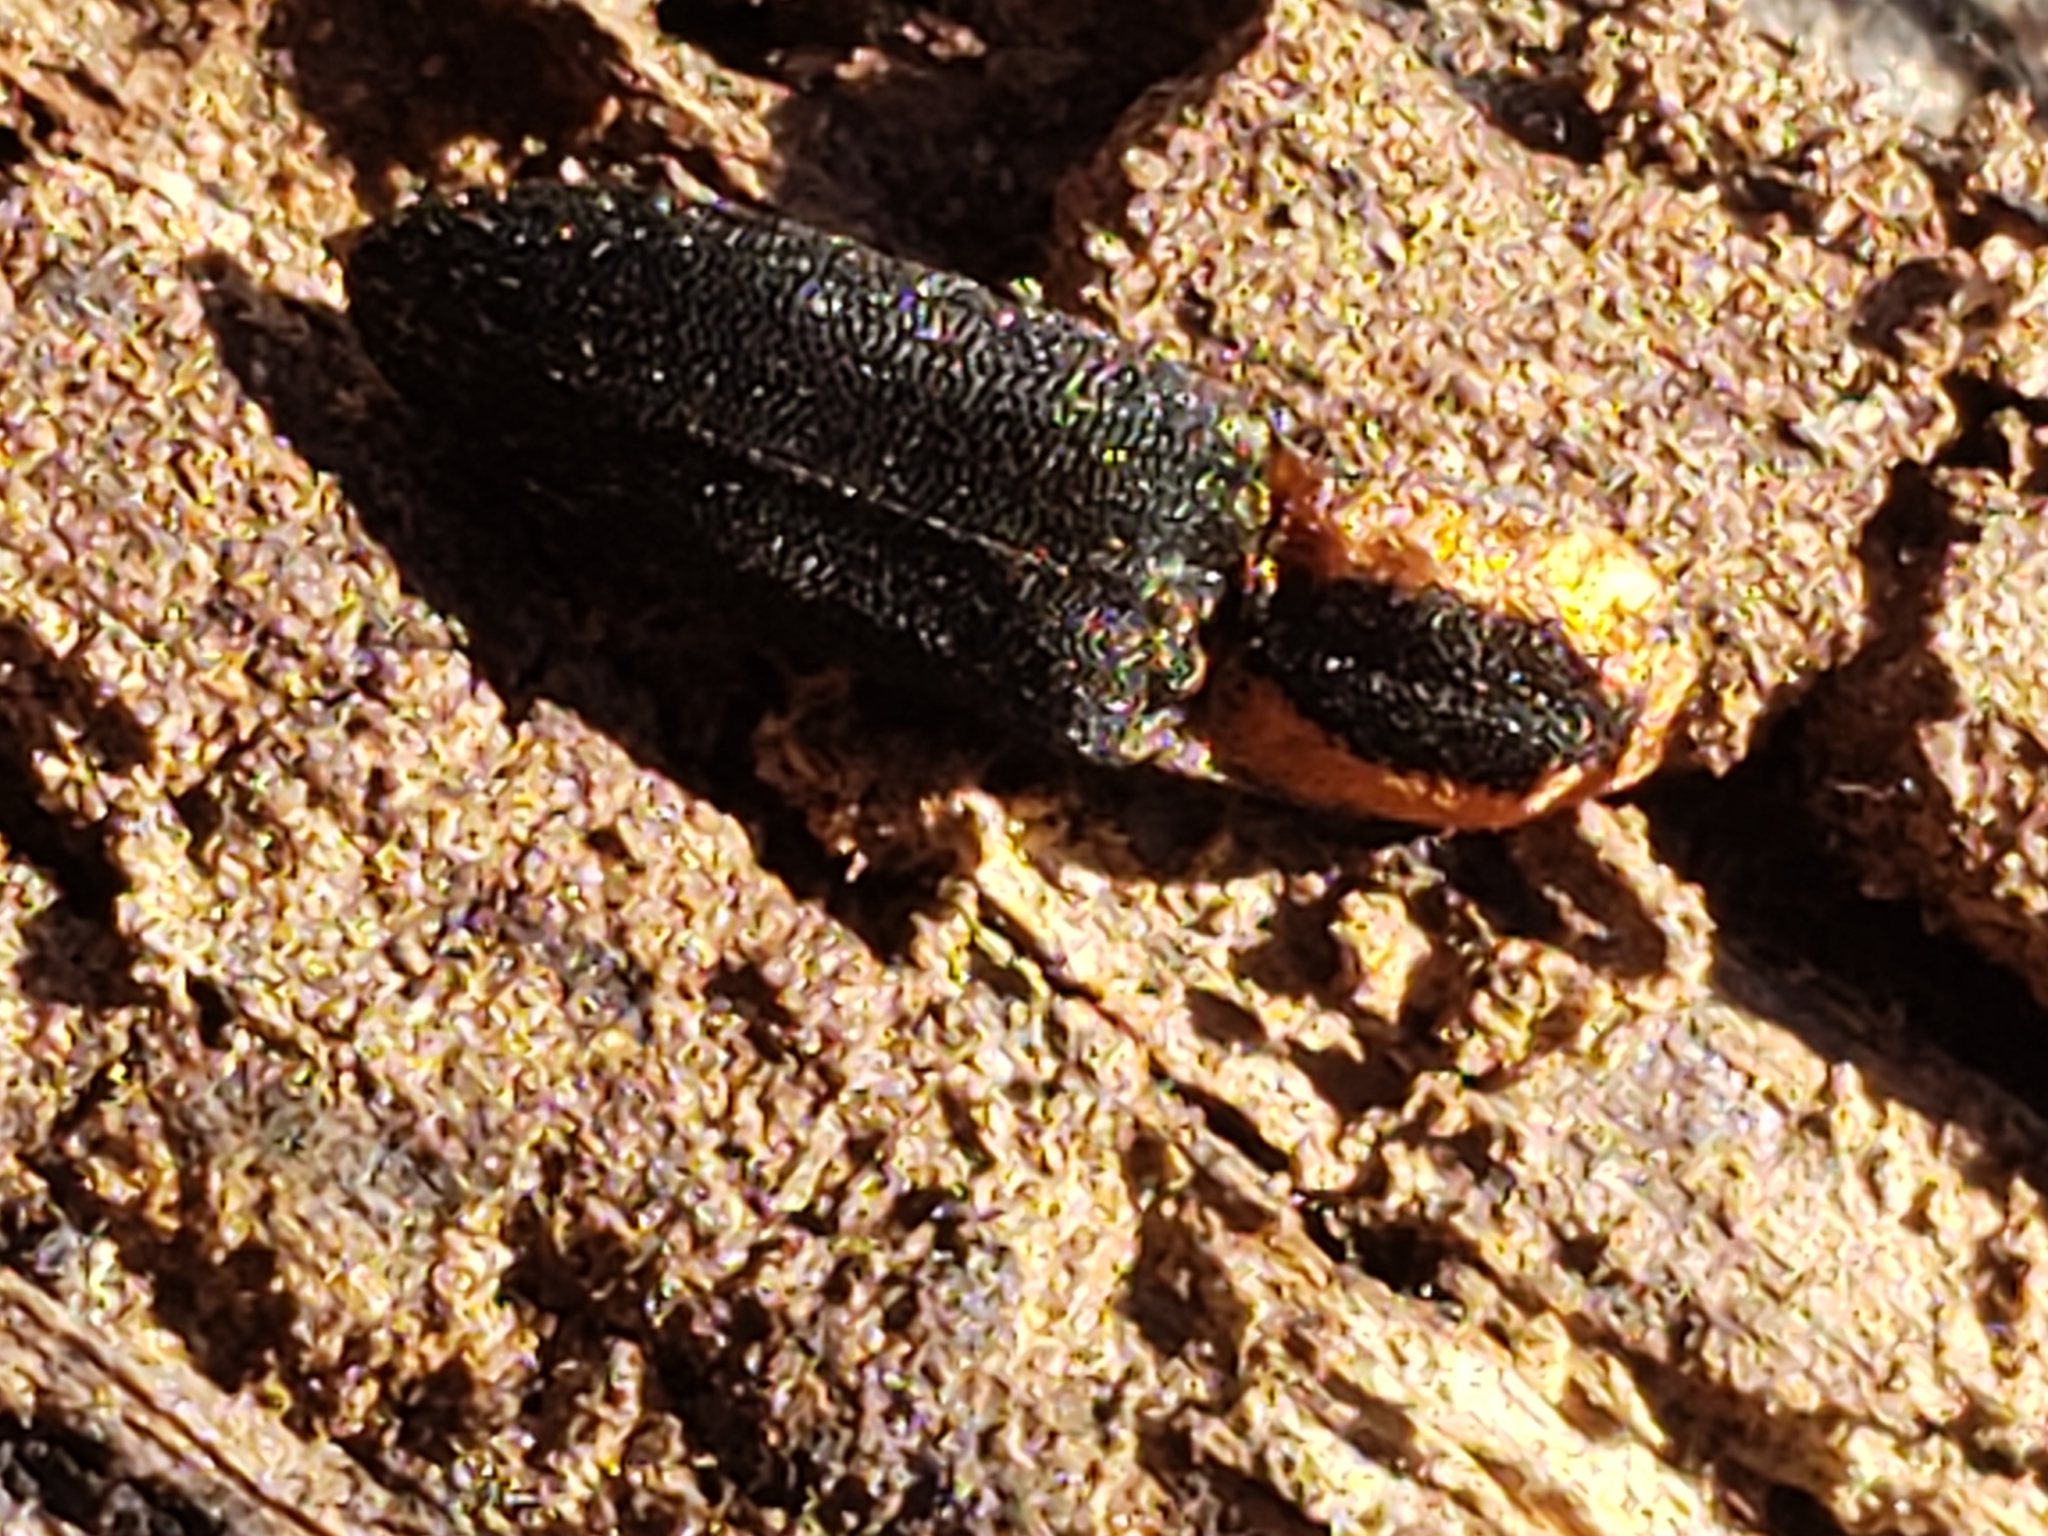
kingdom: Animalia
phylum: Arthropoda
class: Insecta
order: Coleoptera
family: Elateridae
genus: Lacon
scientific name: Lacon discoideus
